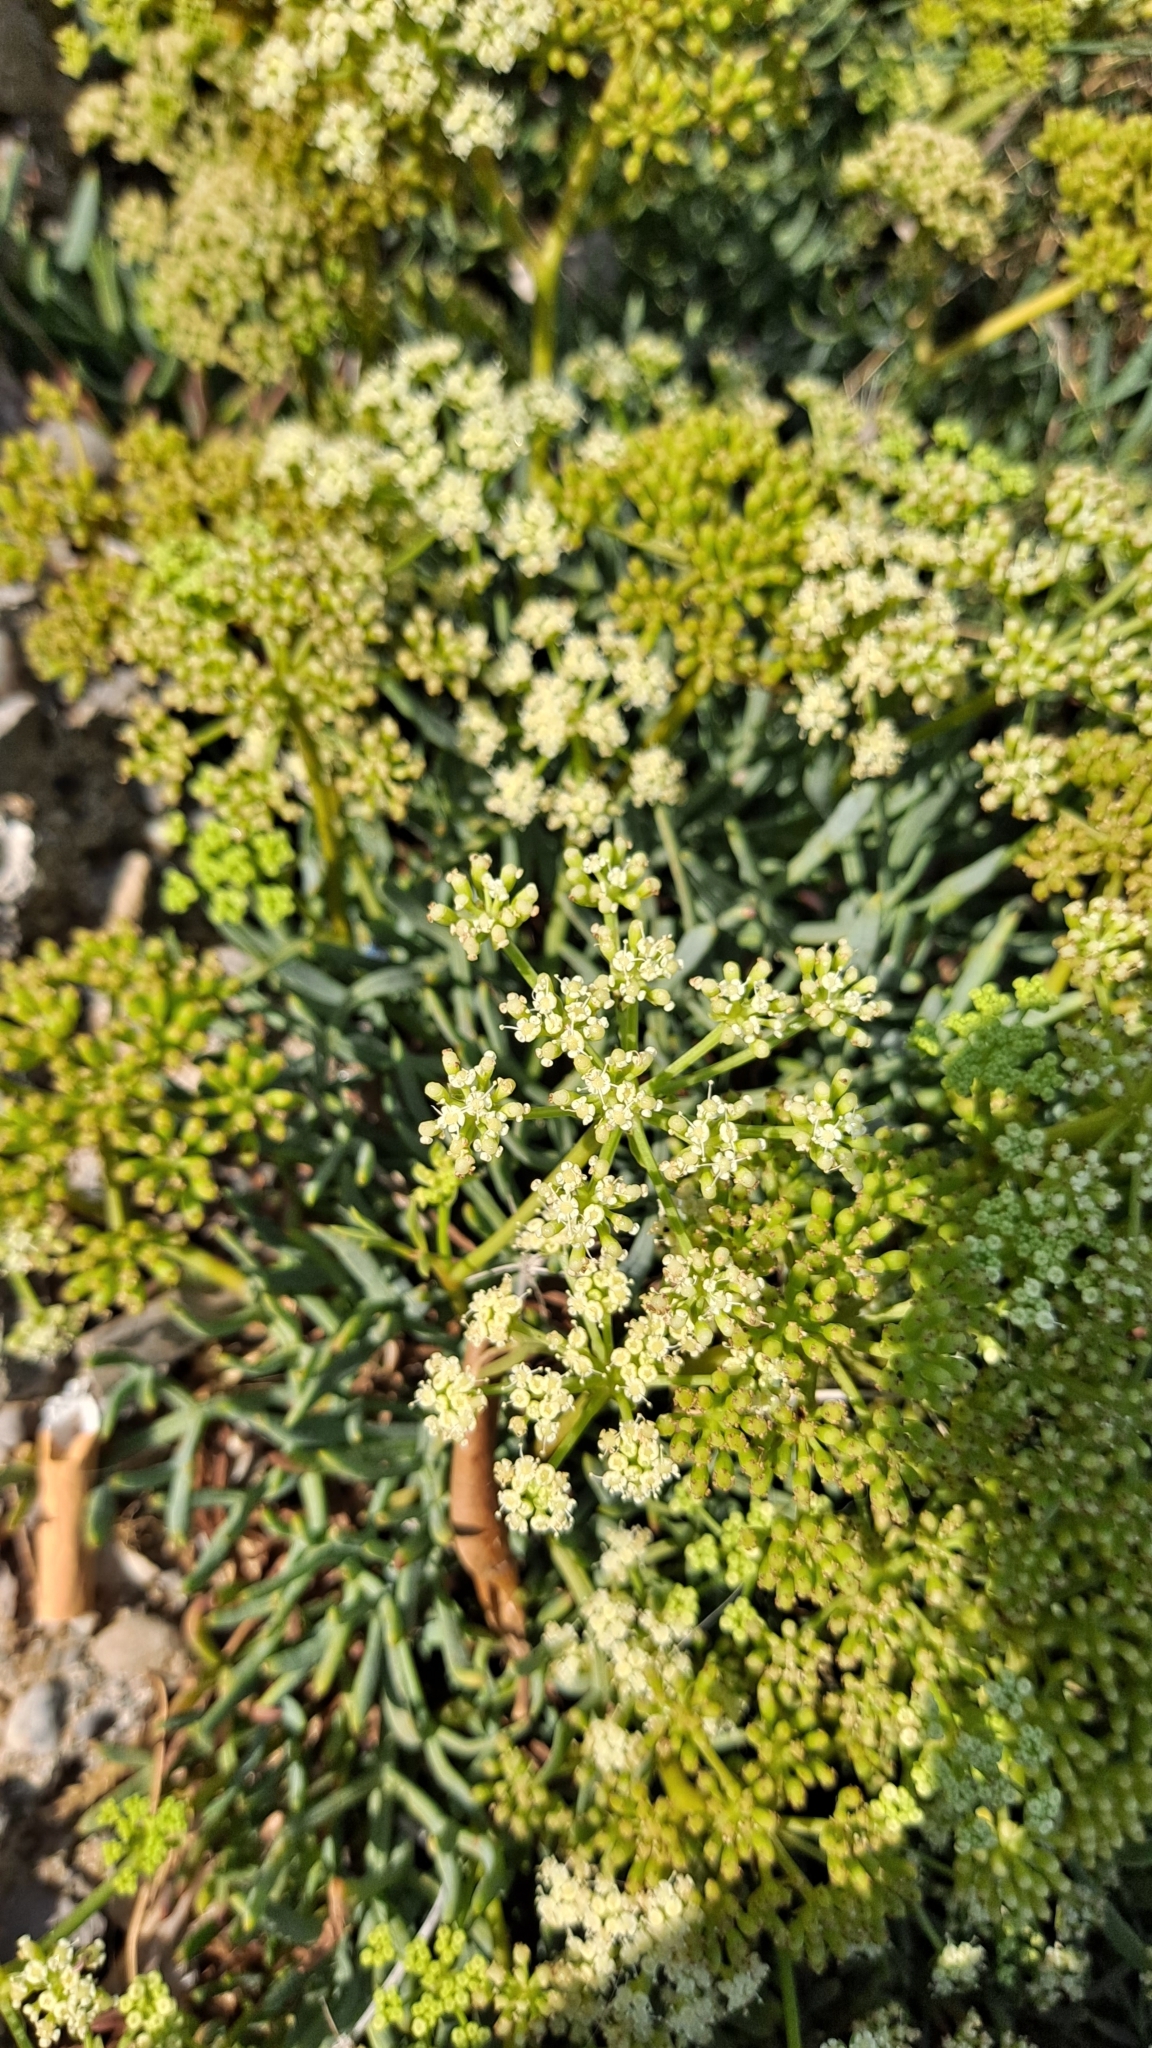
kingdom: Plantae
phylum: Tracheophyta
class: Magnoliopsida
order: Apiales
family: Apiaceae
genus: Crithmum
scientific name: Crithmum maritimum
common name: Rock samphire
